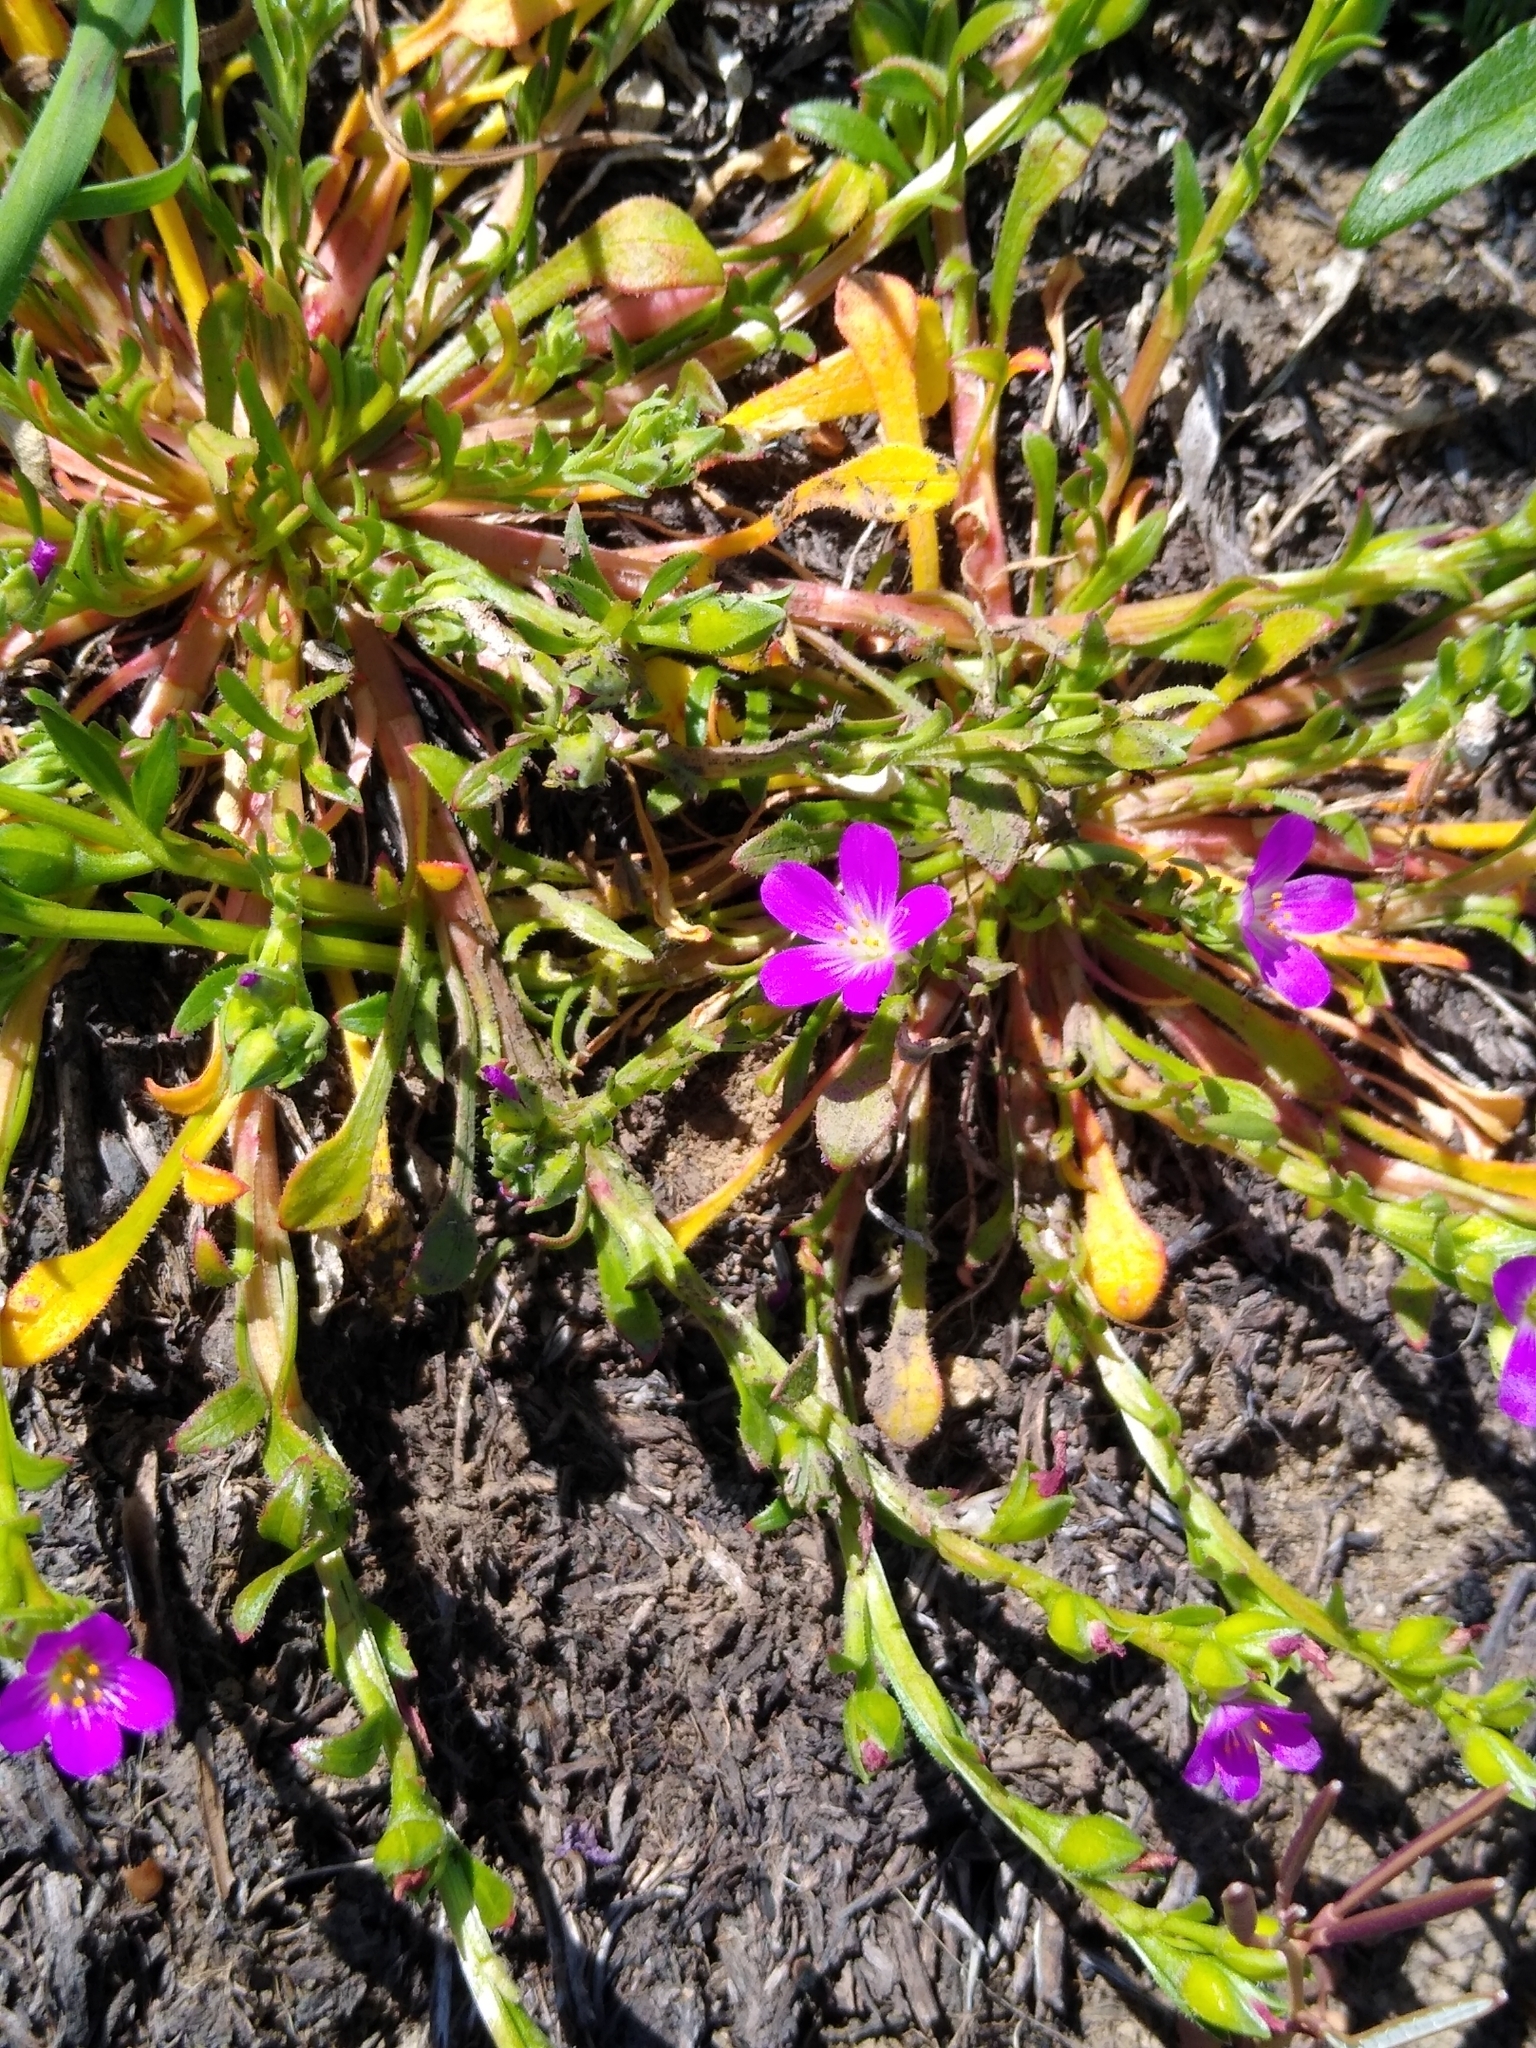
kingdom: Plantae
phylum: Tracheophyta
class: Magnoliopsida
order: Caryophyllales
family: Montiaceae
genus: Calandrinia
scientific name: Calandrinia menziesii
